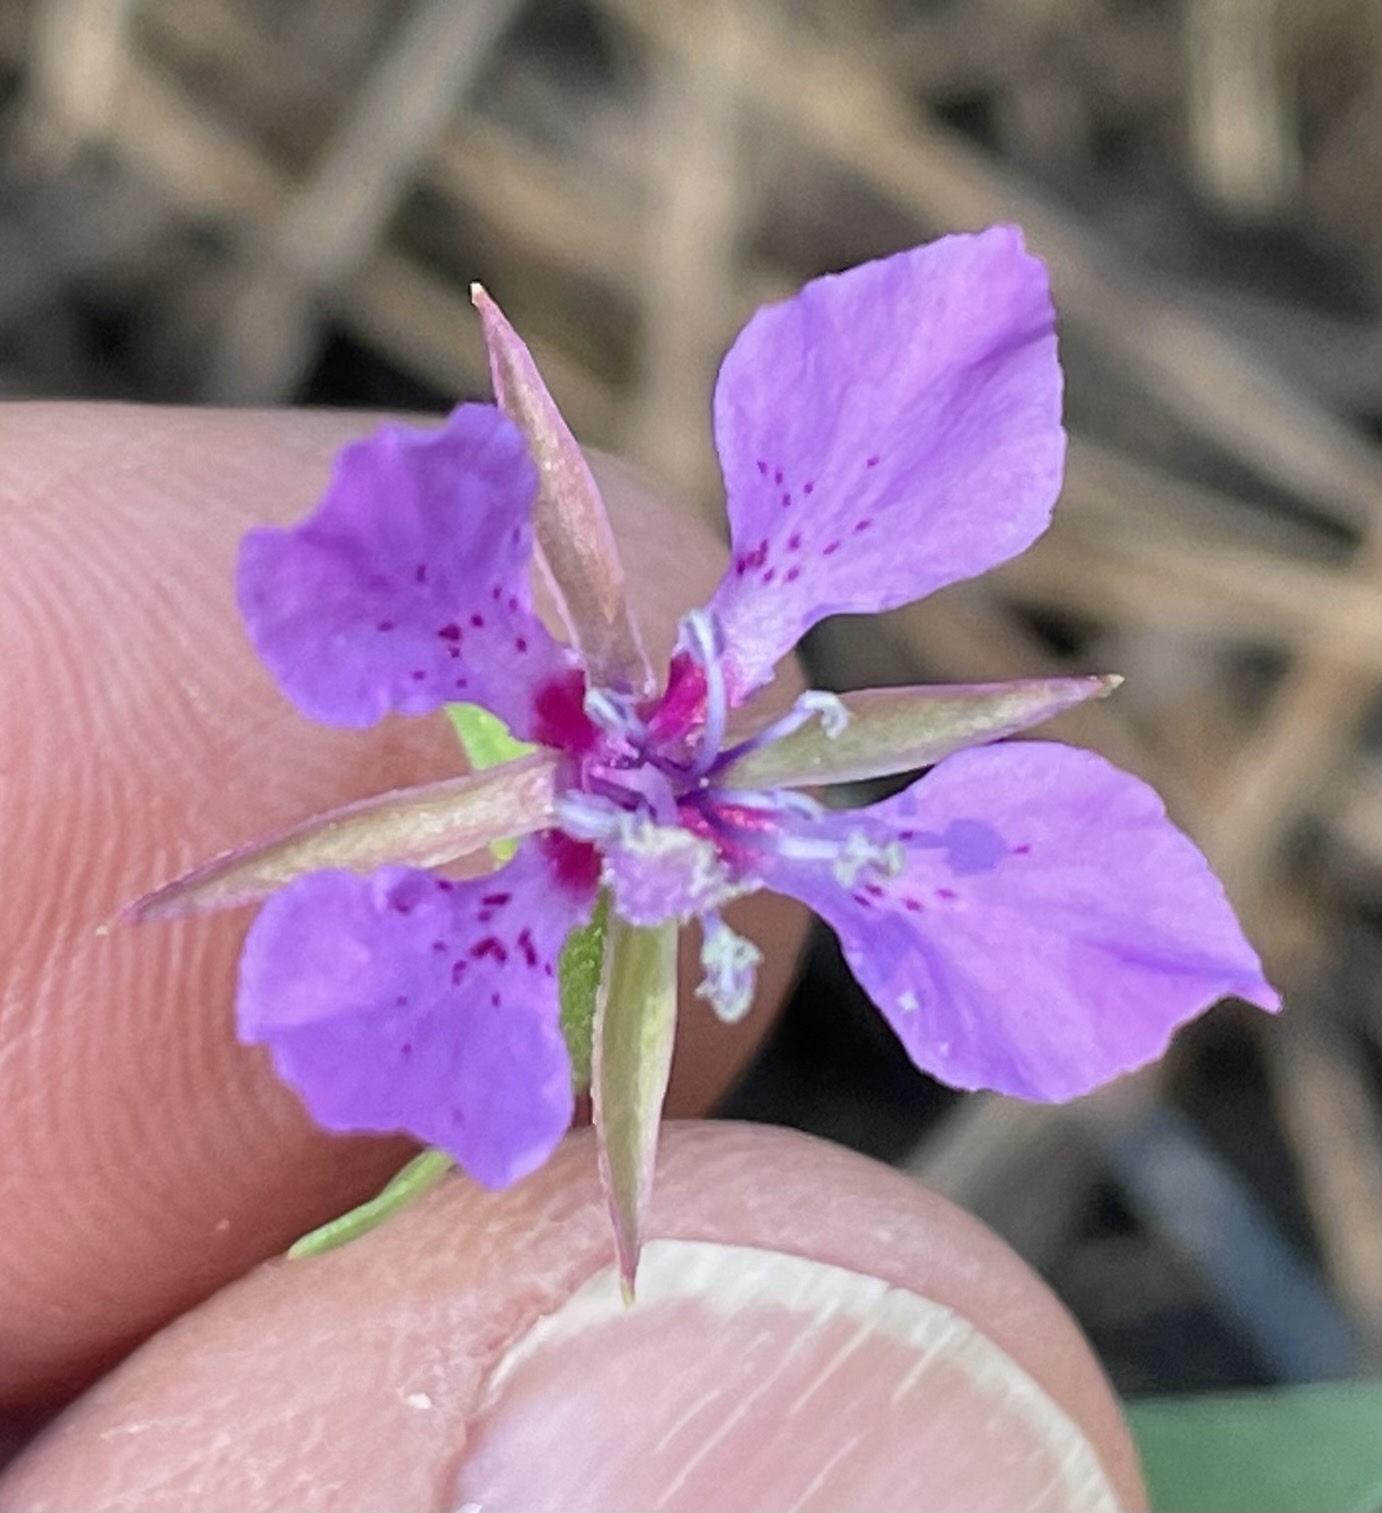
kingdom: Plantae
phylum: Tracheophyta
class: Magnoliopsida
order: Myrtales
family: Onagraceae
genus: Clarkia
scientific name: Clarkia rhomboidea
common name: Broadleaf clarkia
